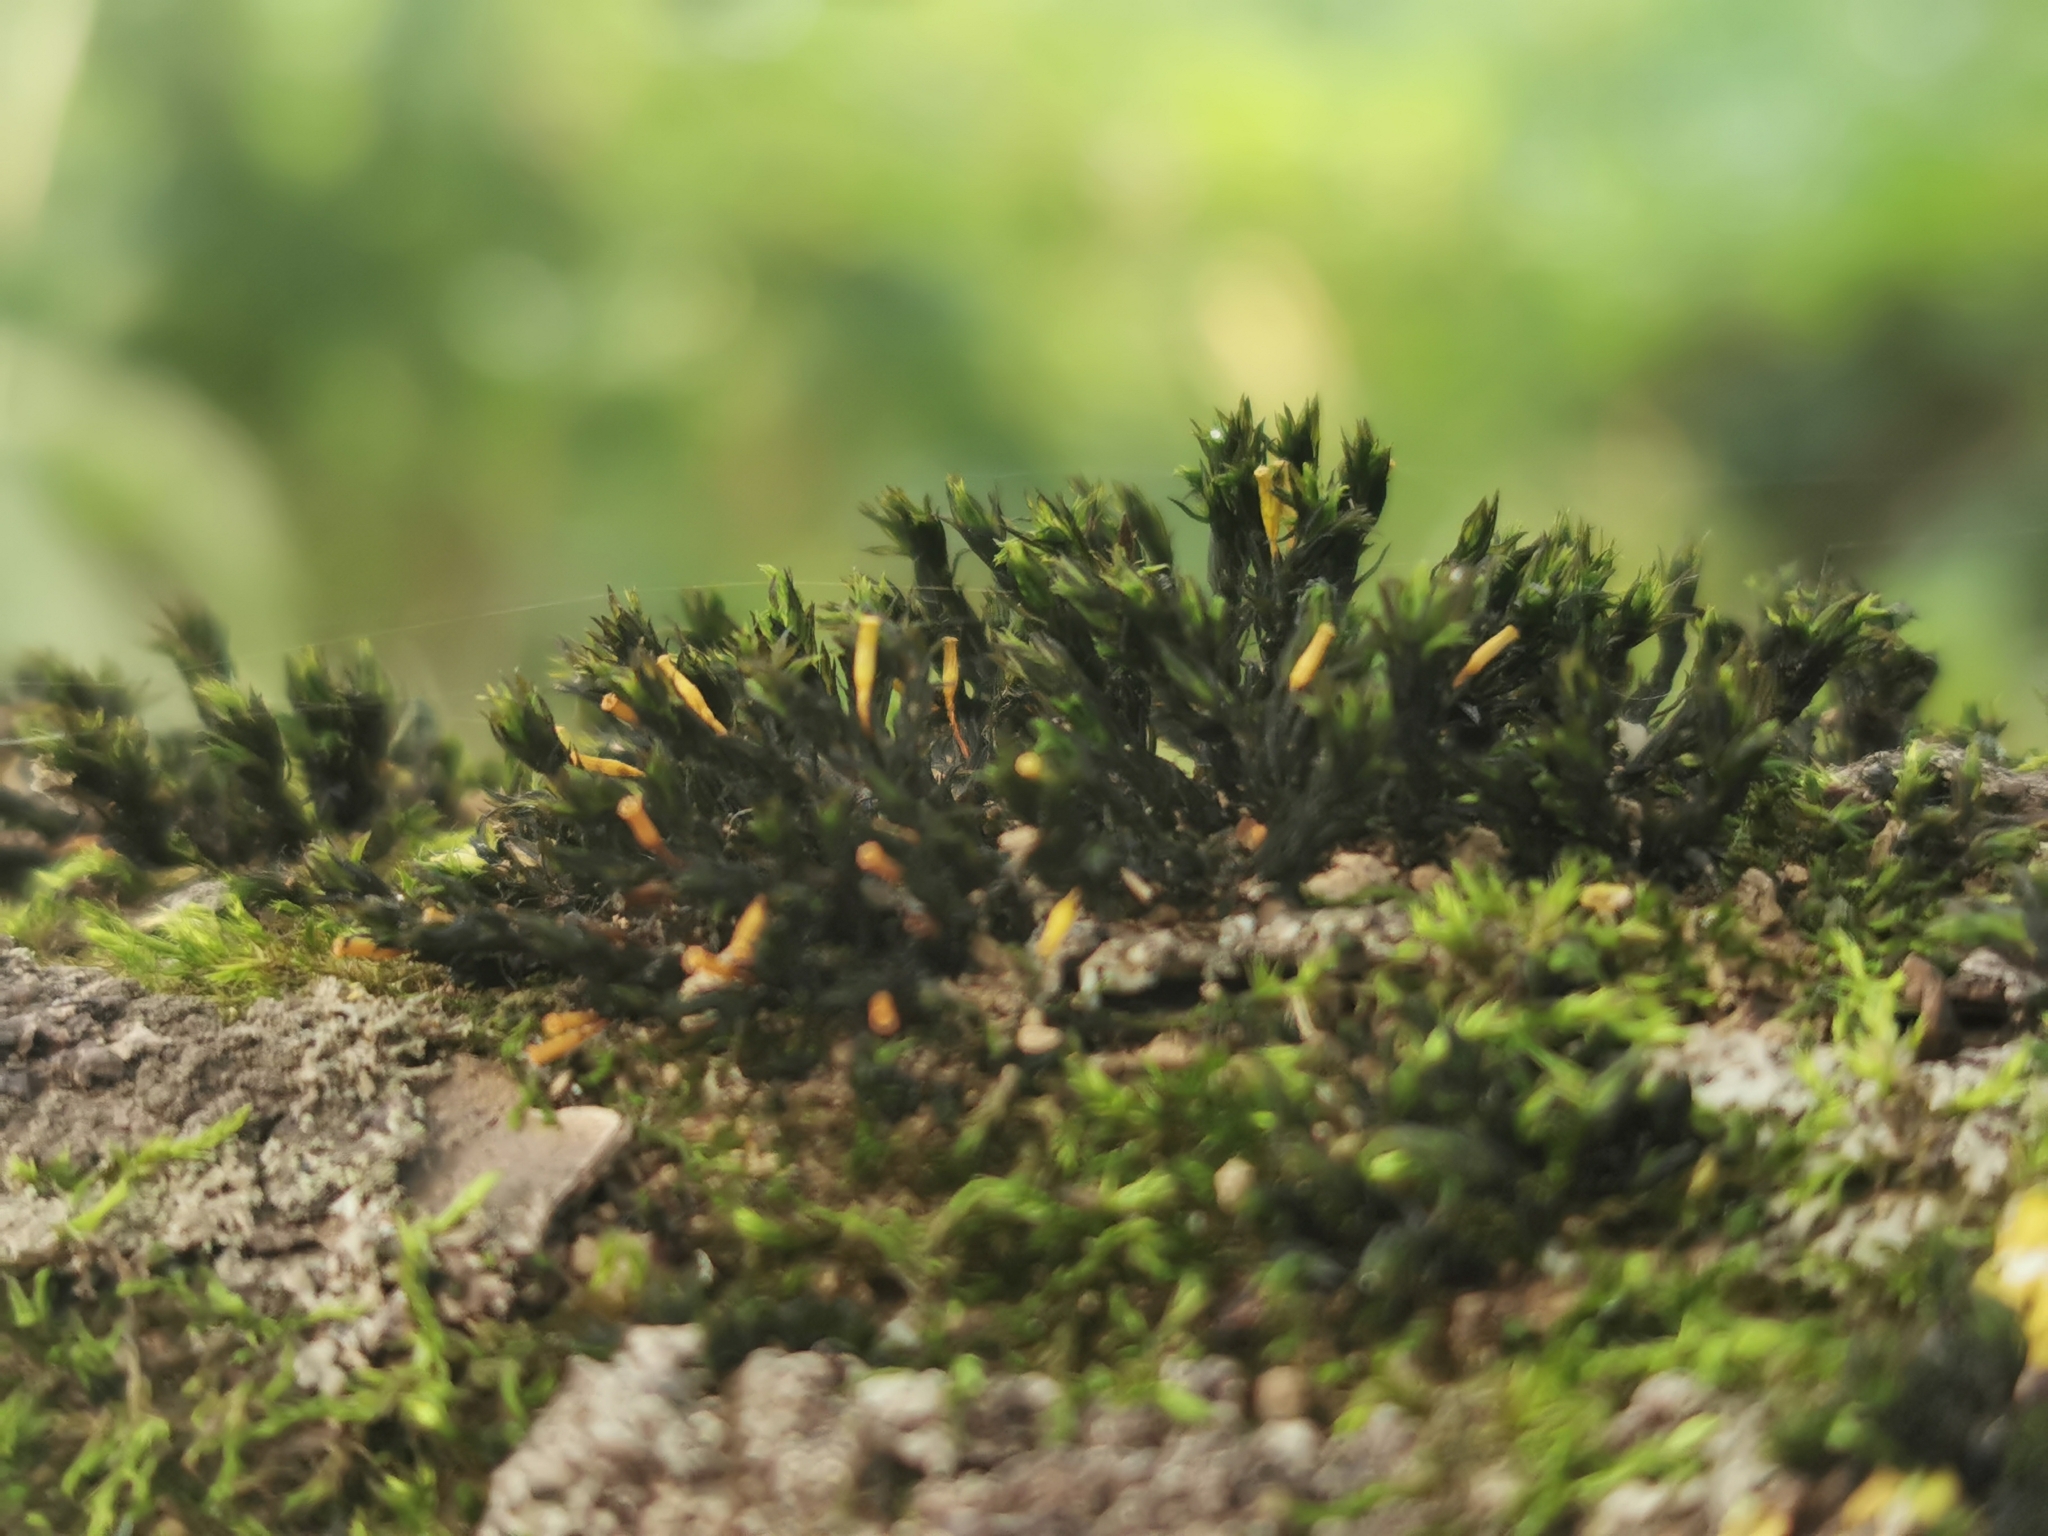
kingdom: Plantae
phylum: Bryophyta
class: Bryopsida
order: Orthotrichales
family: Orthotrichaceae
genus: Lewinskya
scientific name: Lewinskya speciosa
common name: Showy bristle moss
